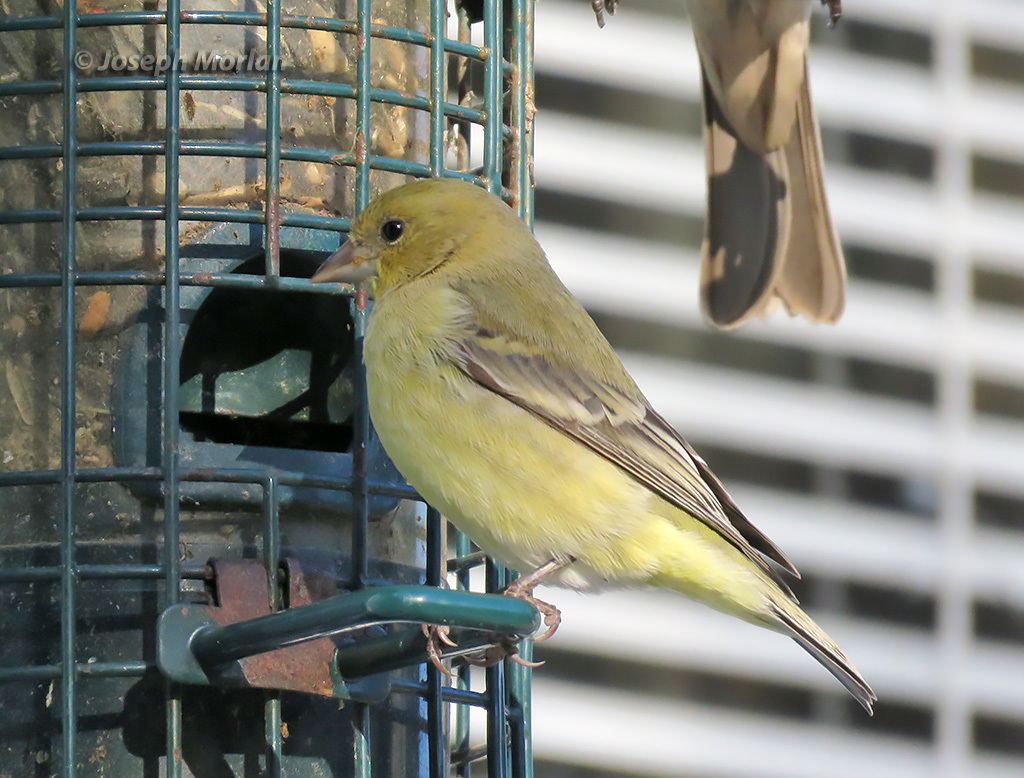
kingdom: Animalia
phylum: Chordata
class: Aves
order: Passeriformes
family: Fringillidae
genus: Spinus
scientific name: Spinus psaltria
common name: Lesser goldfinch
